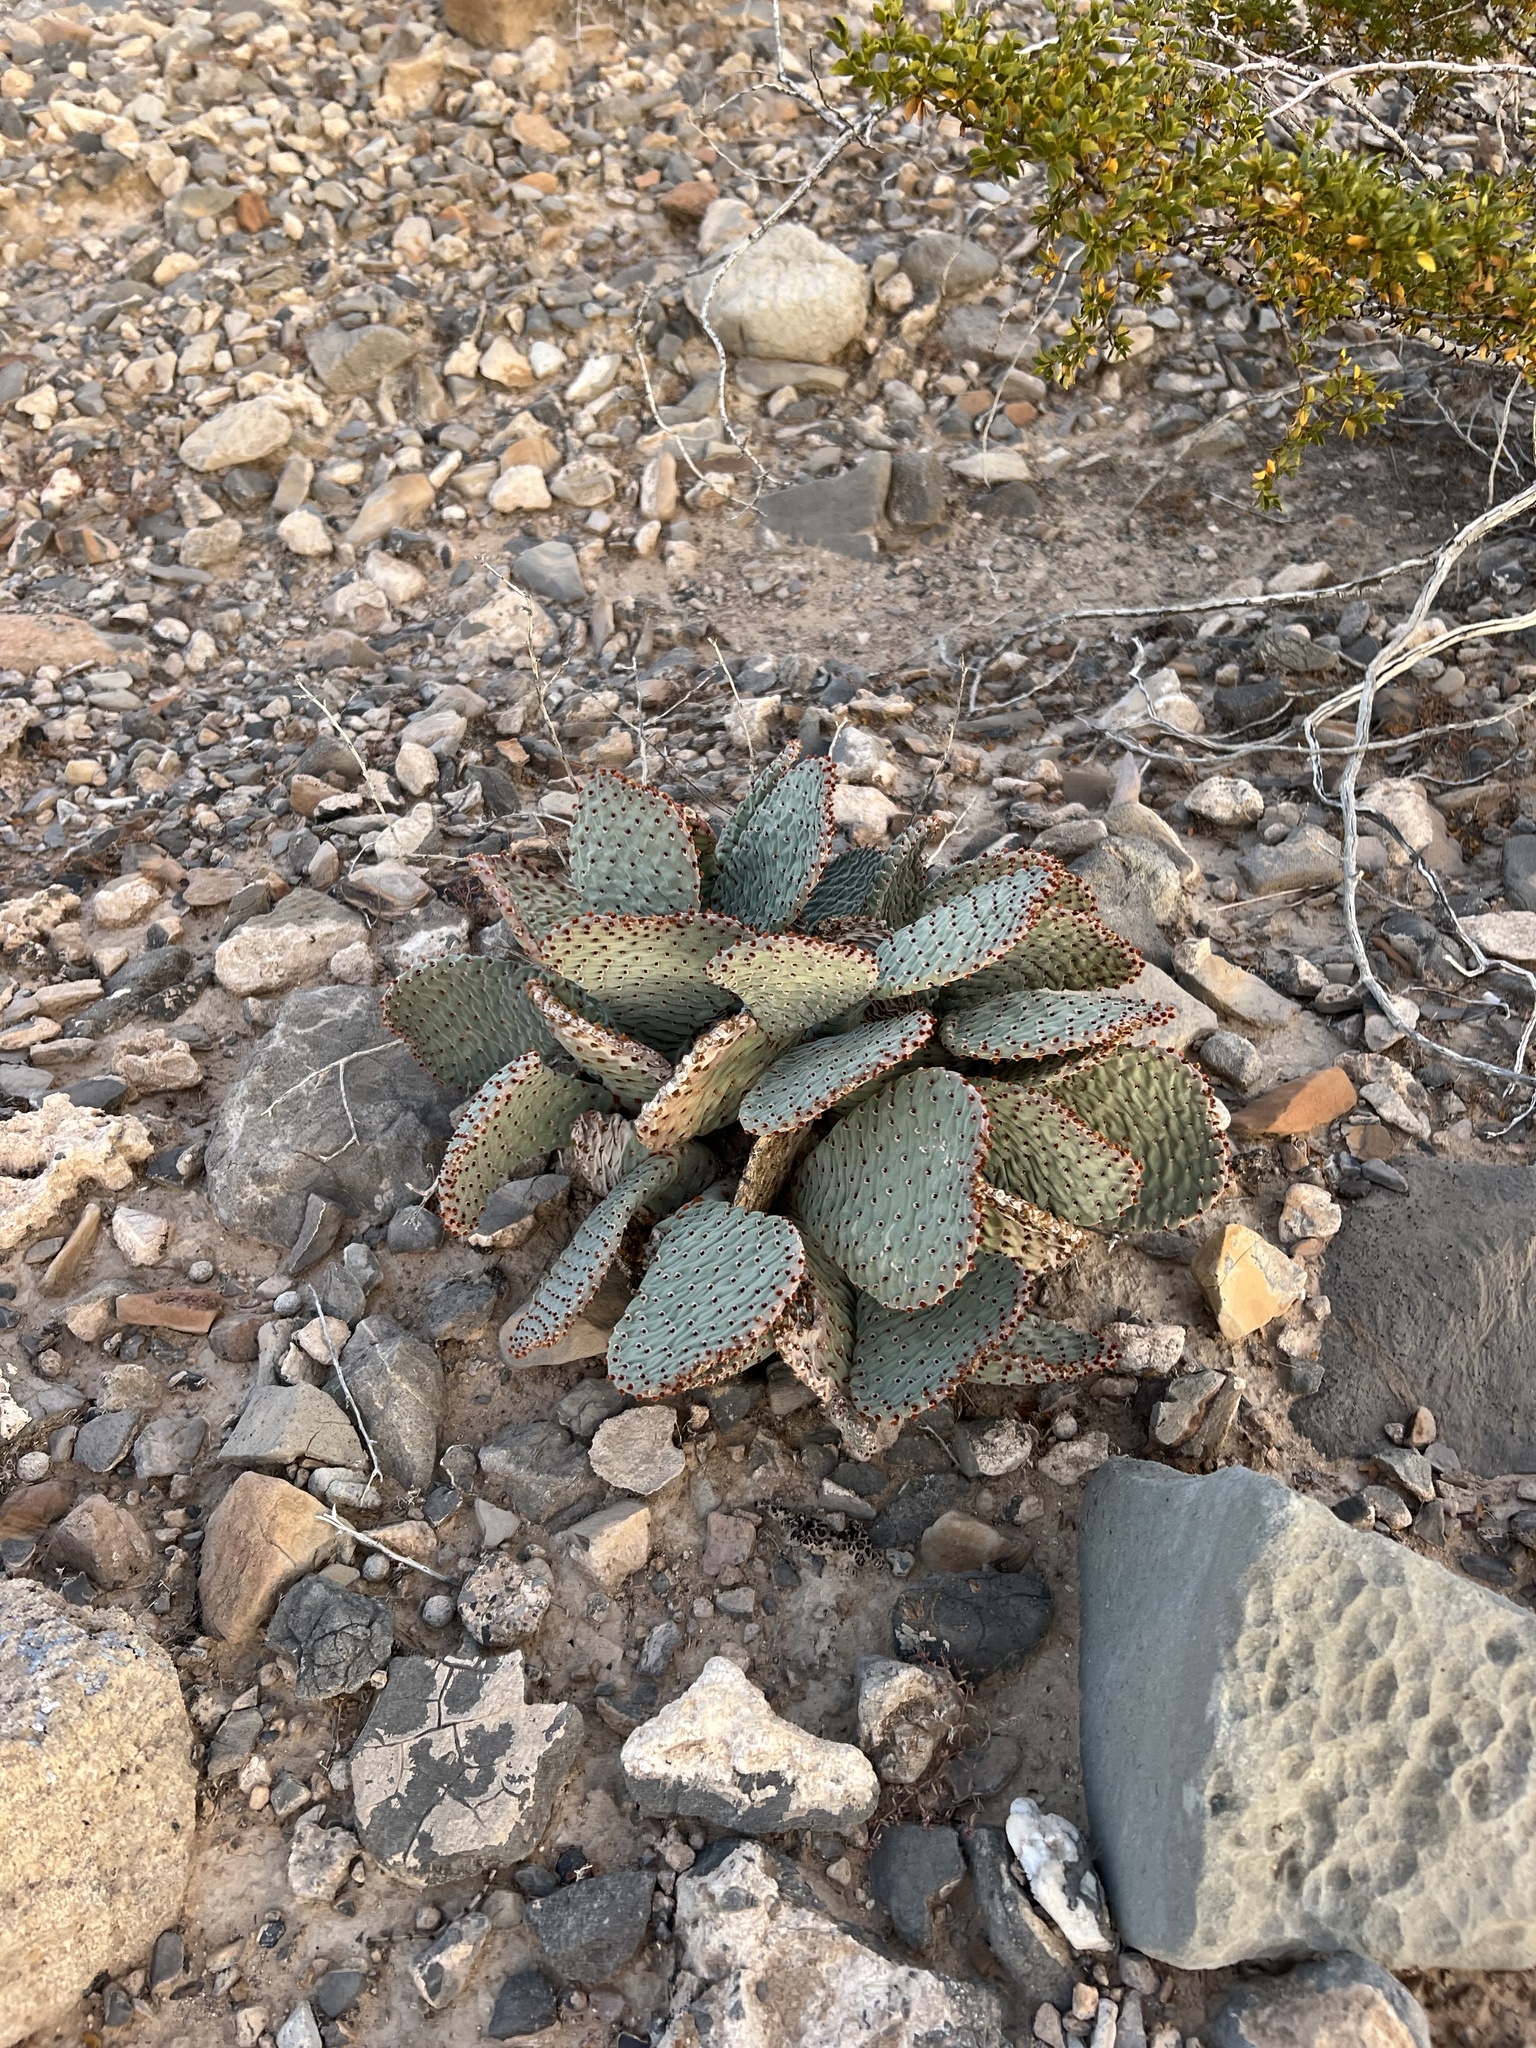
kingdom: Plantae
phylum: Tracheophyta
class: Magnoliopsida
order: Caryophyllales
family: Cactaceae
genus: Opuntia
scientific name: Opuntia basilaris
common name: Beavertail prickly-pear
